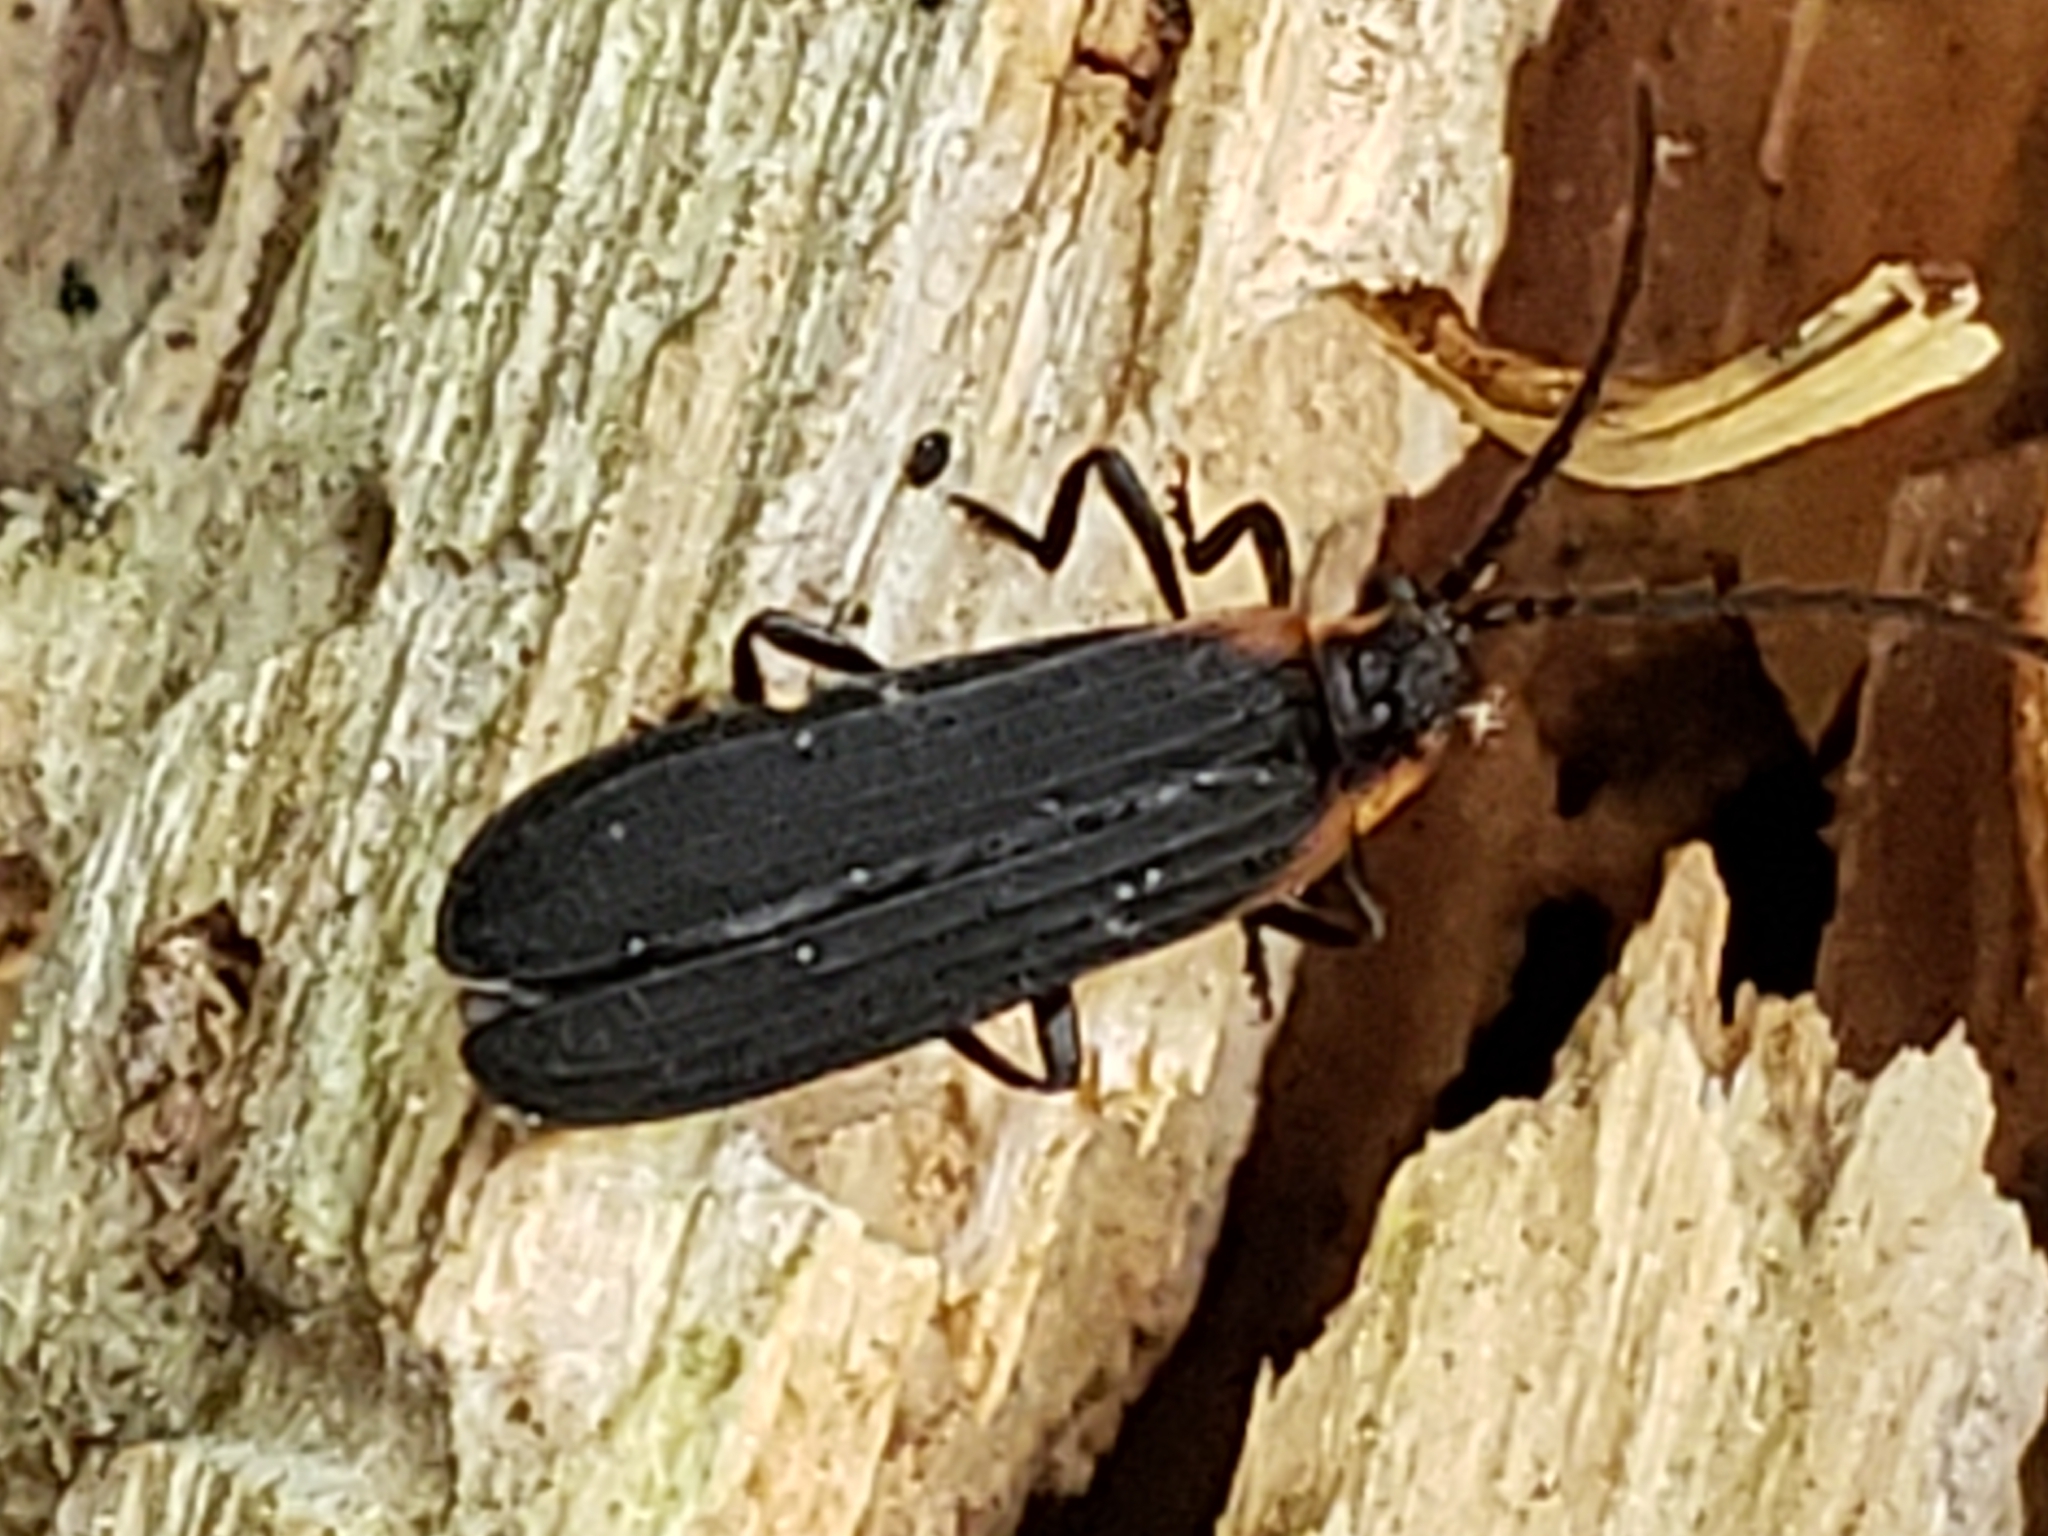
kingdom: Animalia
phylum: Arthropoda
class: Insecta
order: Coleoptera
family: Lycidae
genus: Eros
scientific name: Eros humeralis
